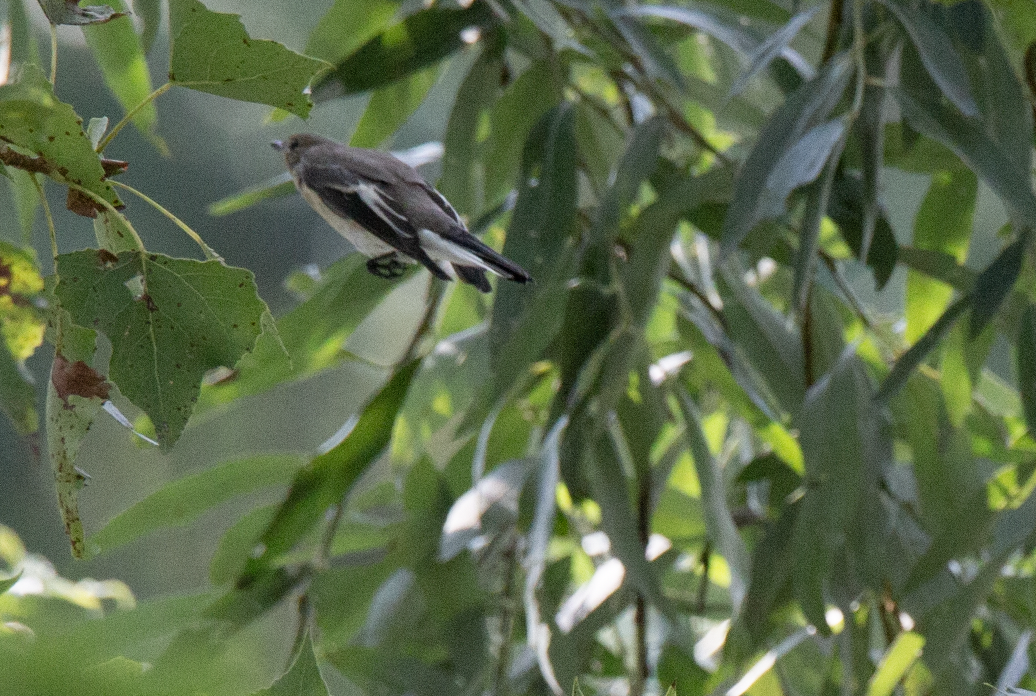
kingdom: Animalia
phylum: Chordata
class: Aves
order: Passeriformes
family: Muscicapidae
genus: Ficedula
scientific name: Ficedula hypoleuca
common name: European pied flycatcher
